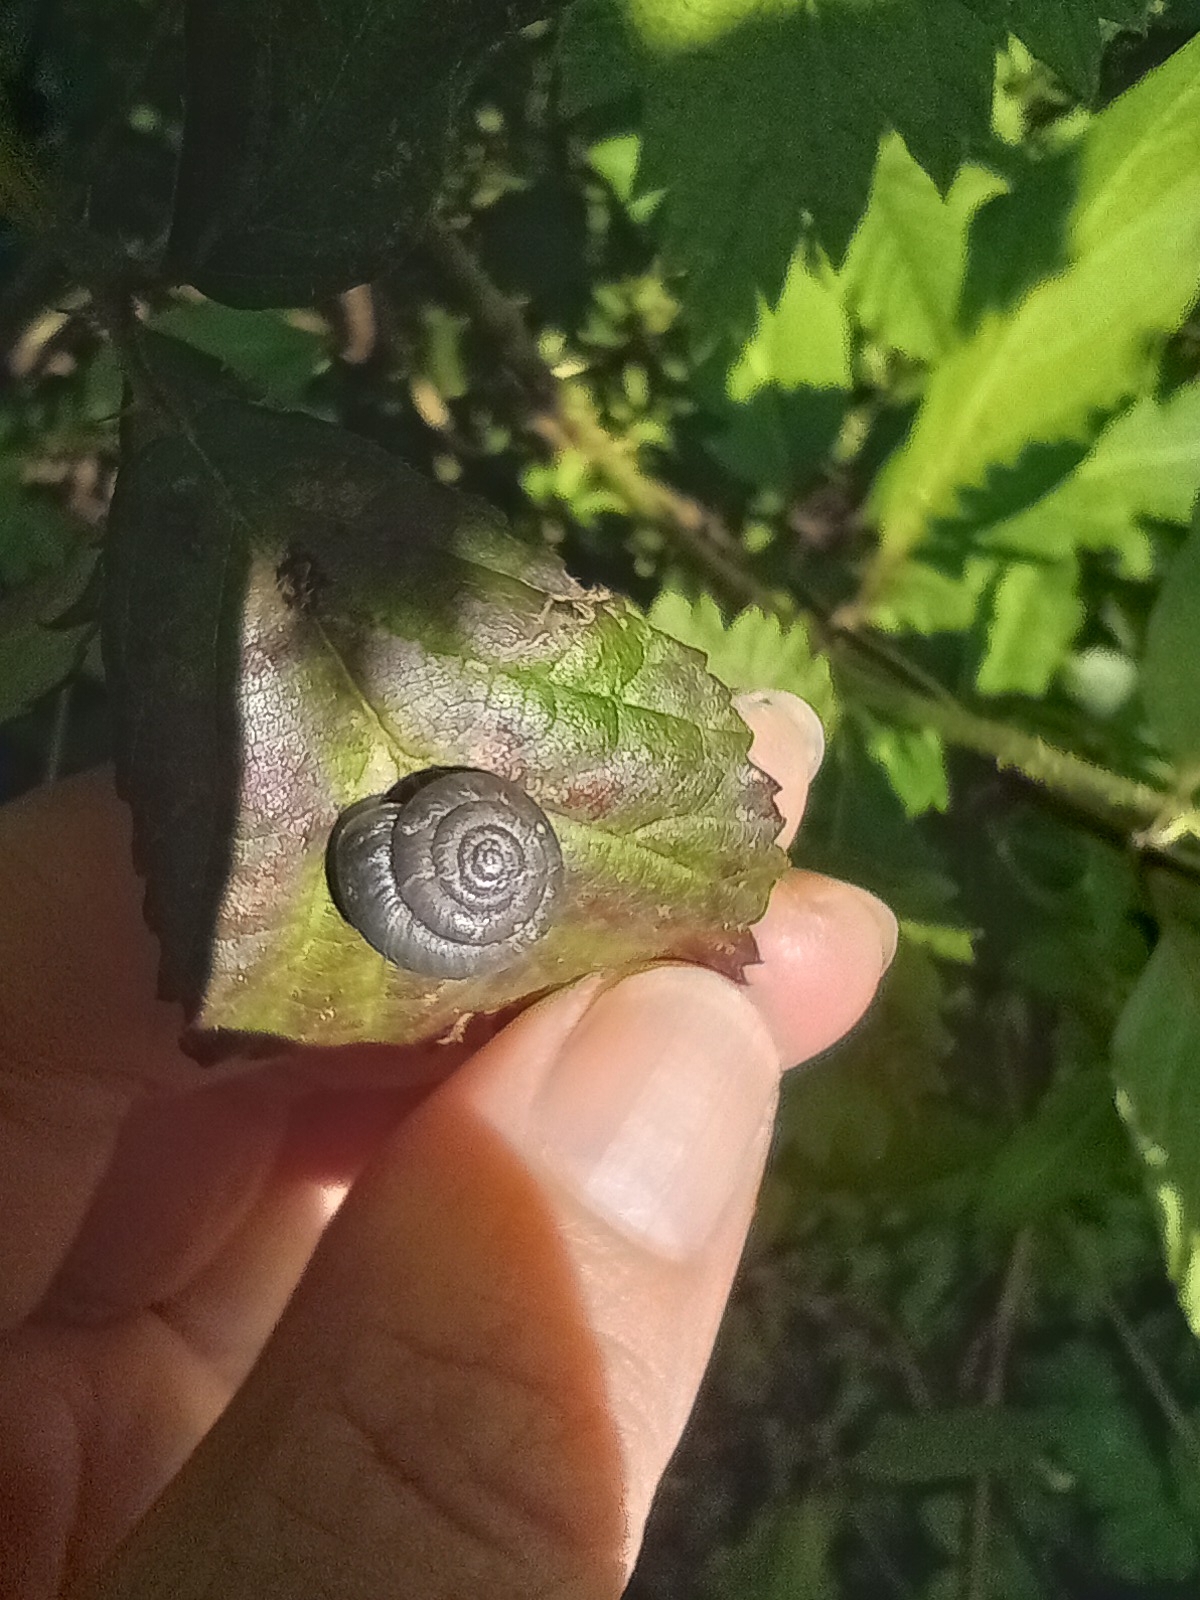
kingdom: Animalia
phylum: Mollusca
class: Gastropoda
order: Stylommatophora
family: Hygromiidae
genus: Trochulus
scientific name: Trochulus striolatus
